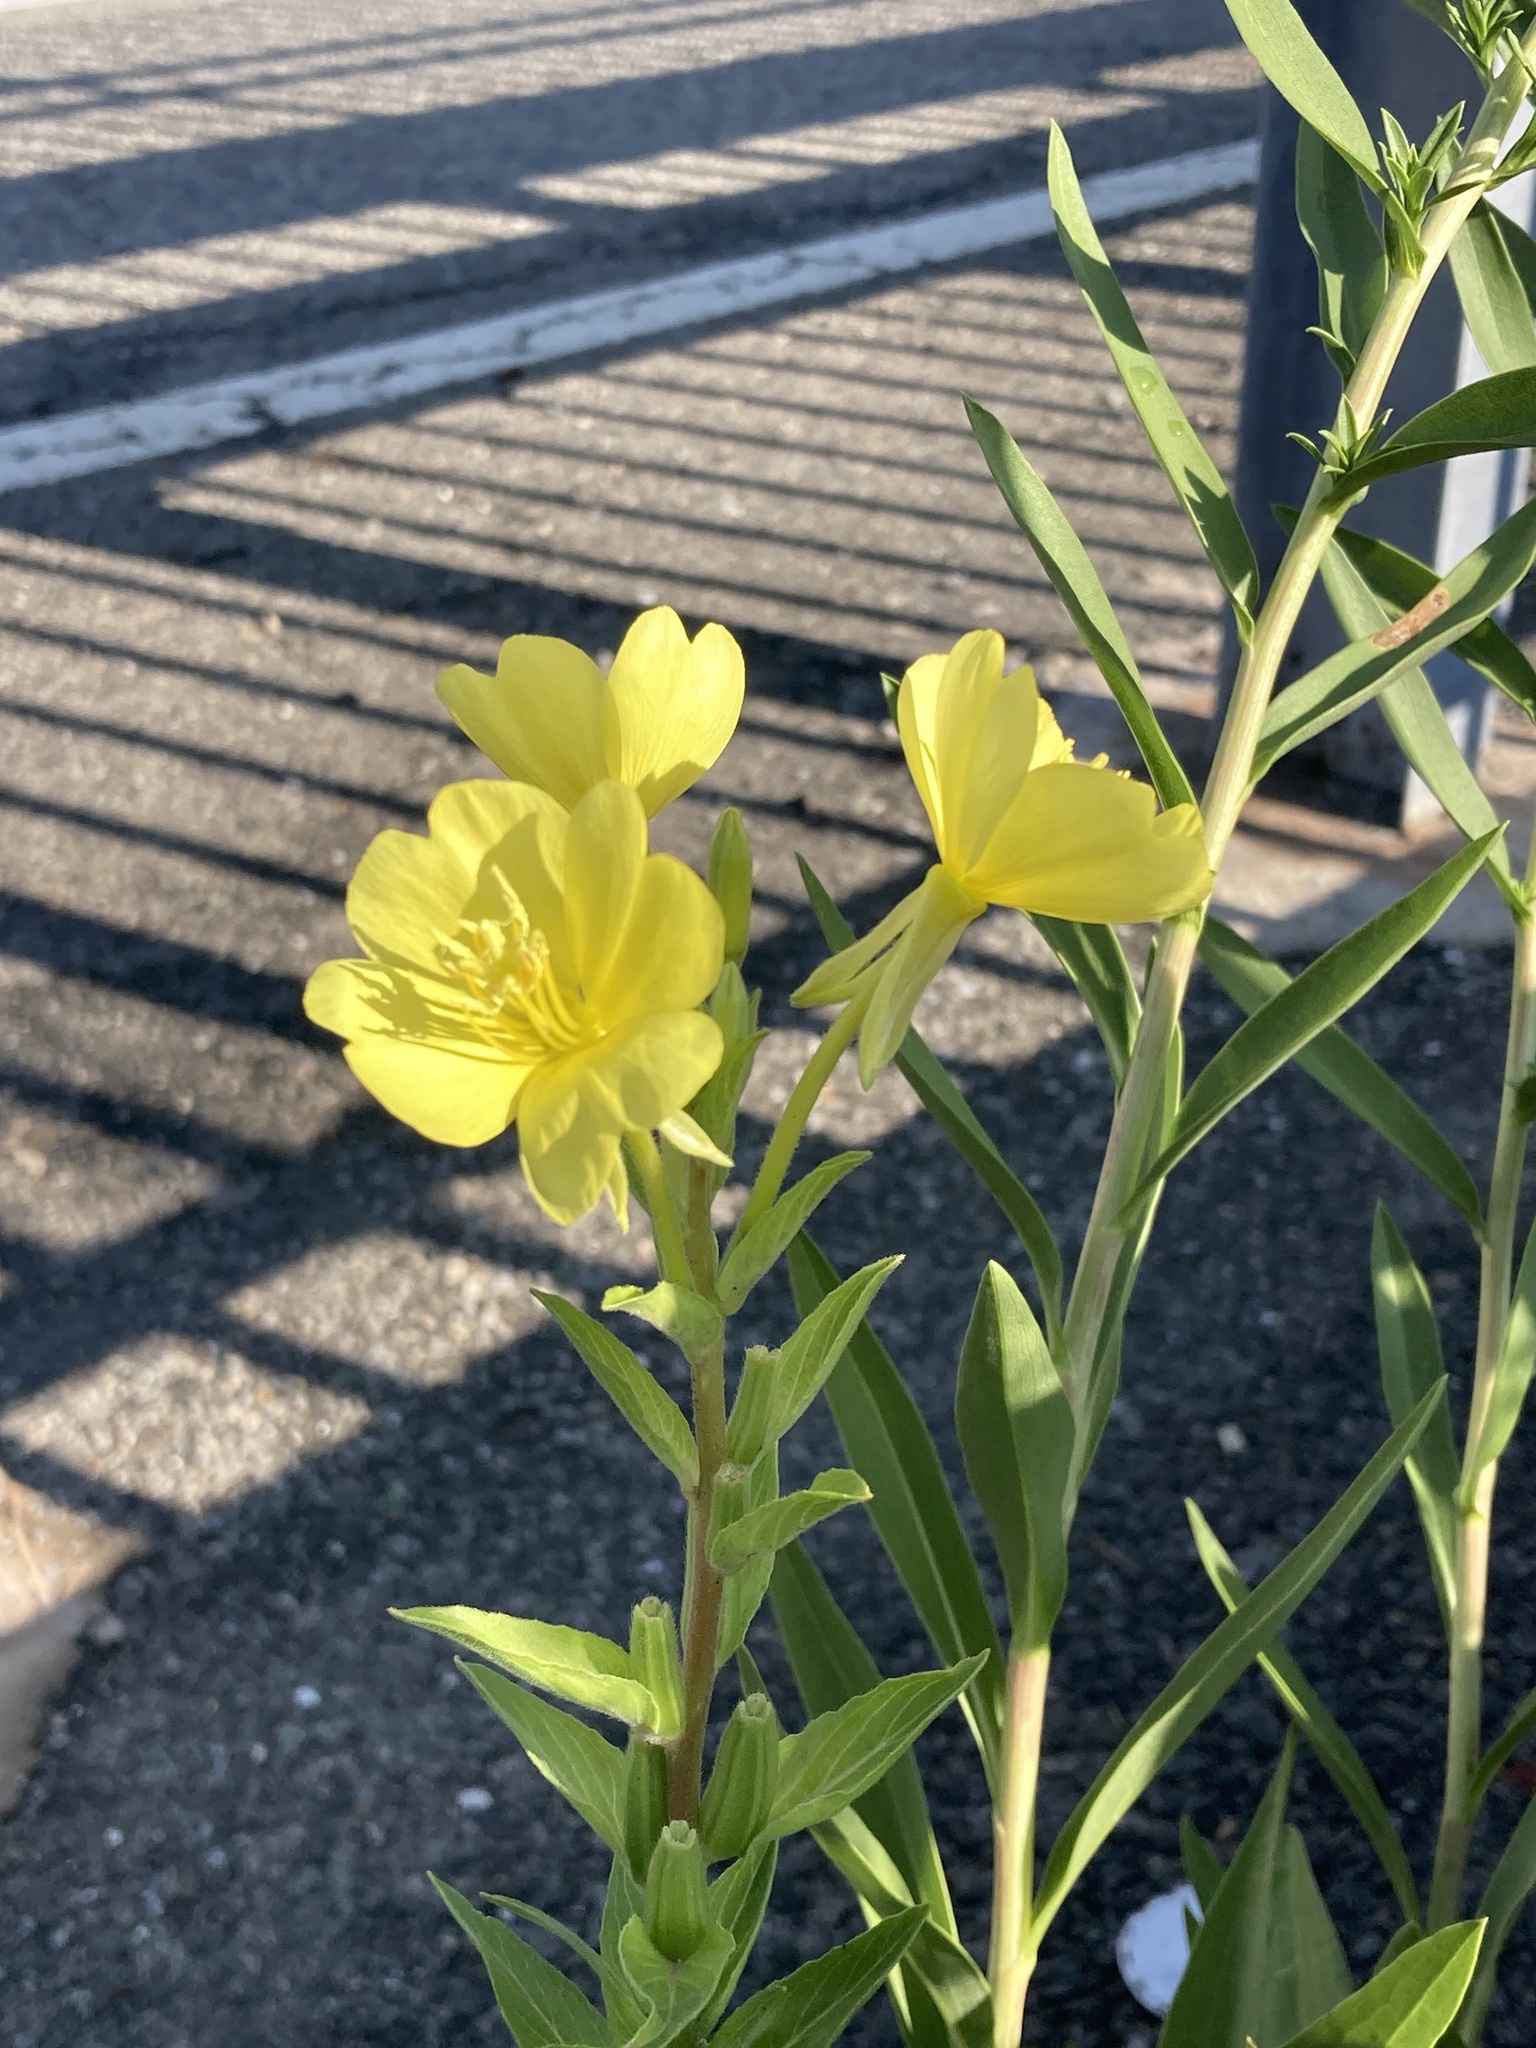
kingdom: Plantae
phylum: Tracheophyta
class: Magnoliopsida
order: Myrtales
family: Onagraceae
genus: Oenothera
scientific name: Oenothera biennis
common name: Common evening-primrose
